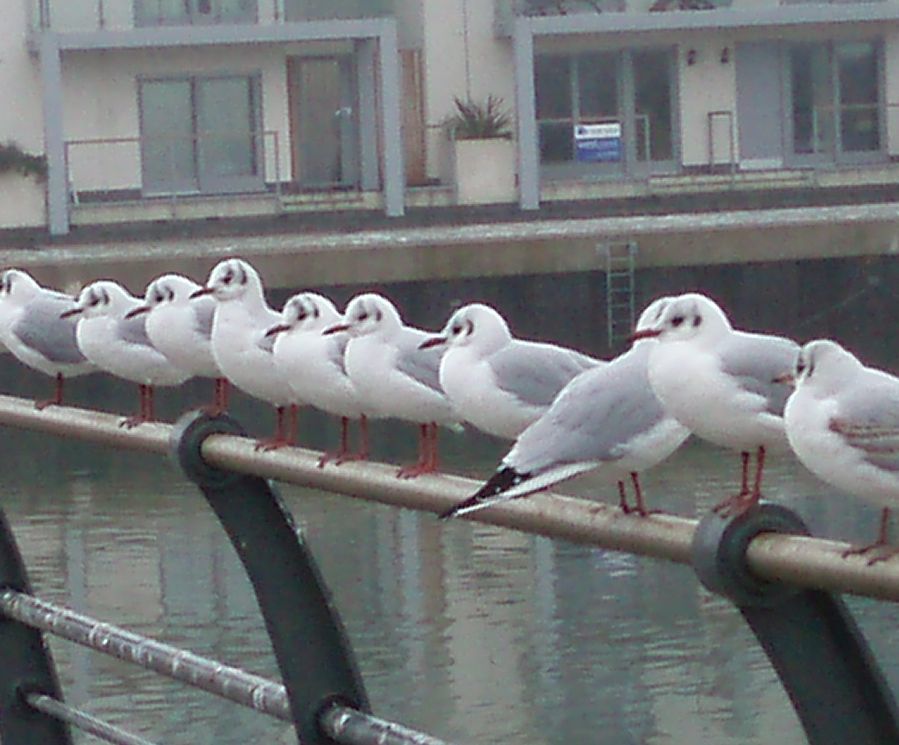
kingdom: Animalia
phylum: Chordata
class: Aves
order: Charadriiformes
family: Laridae
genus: Chroicocephalus
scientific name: Chroicocephalus ridibundus
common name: Black-headed gull
